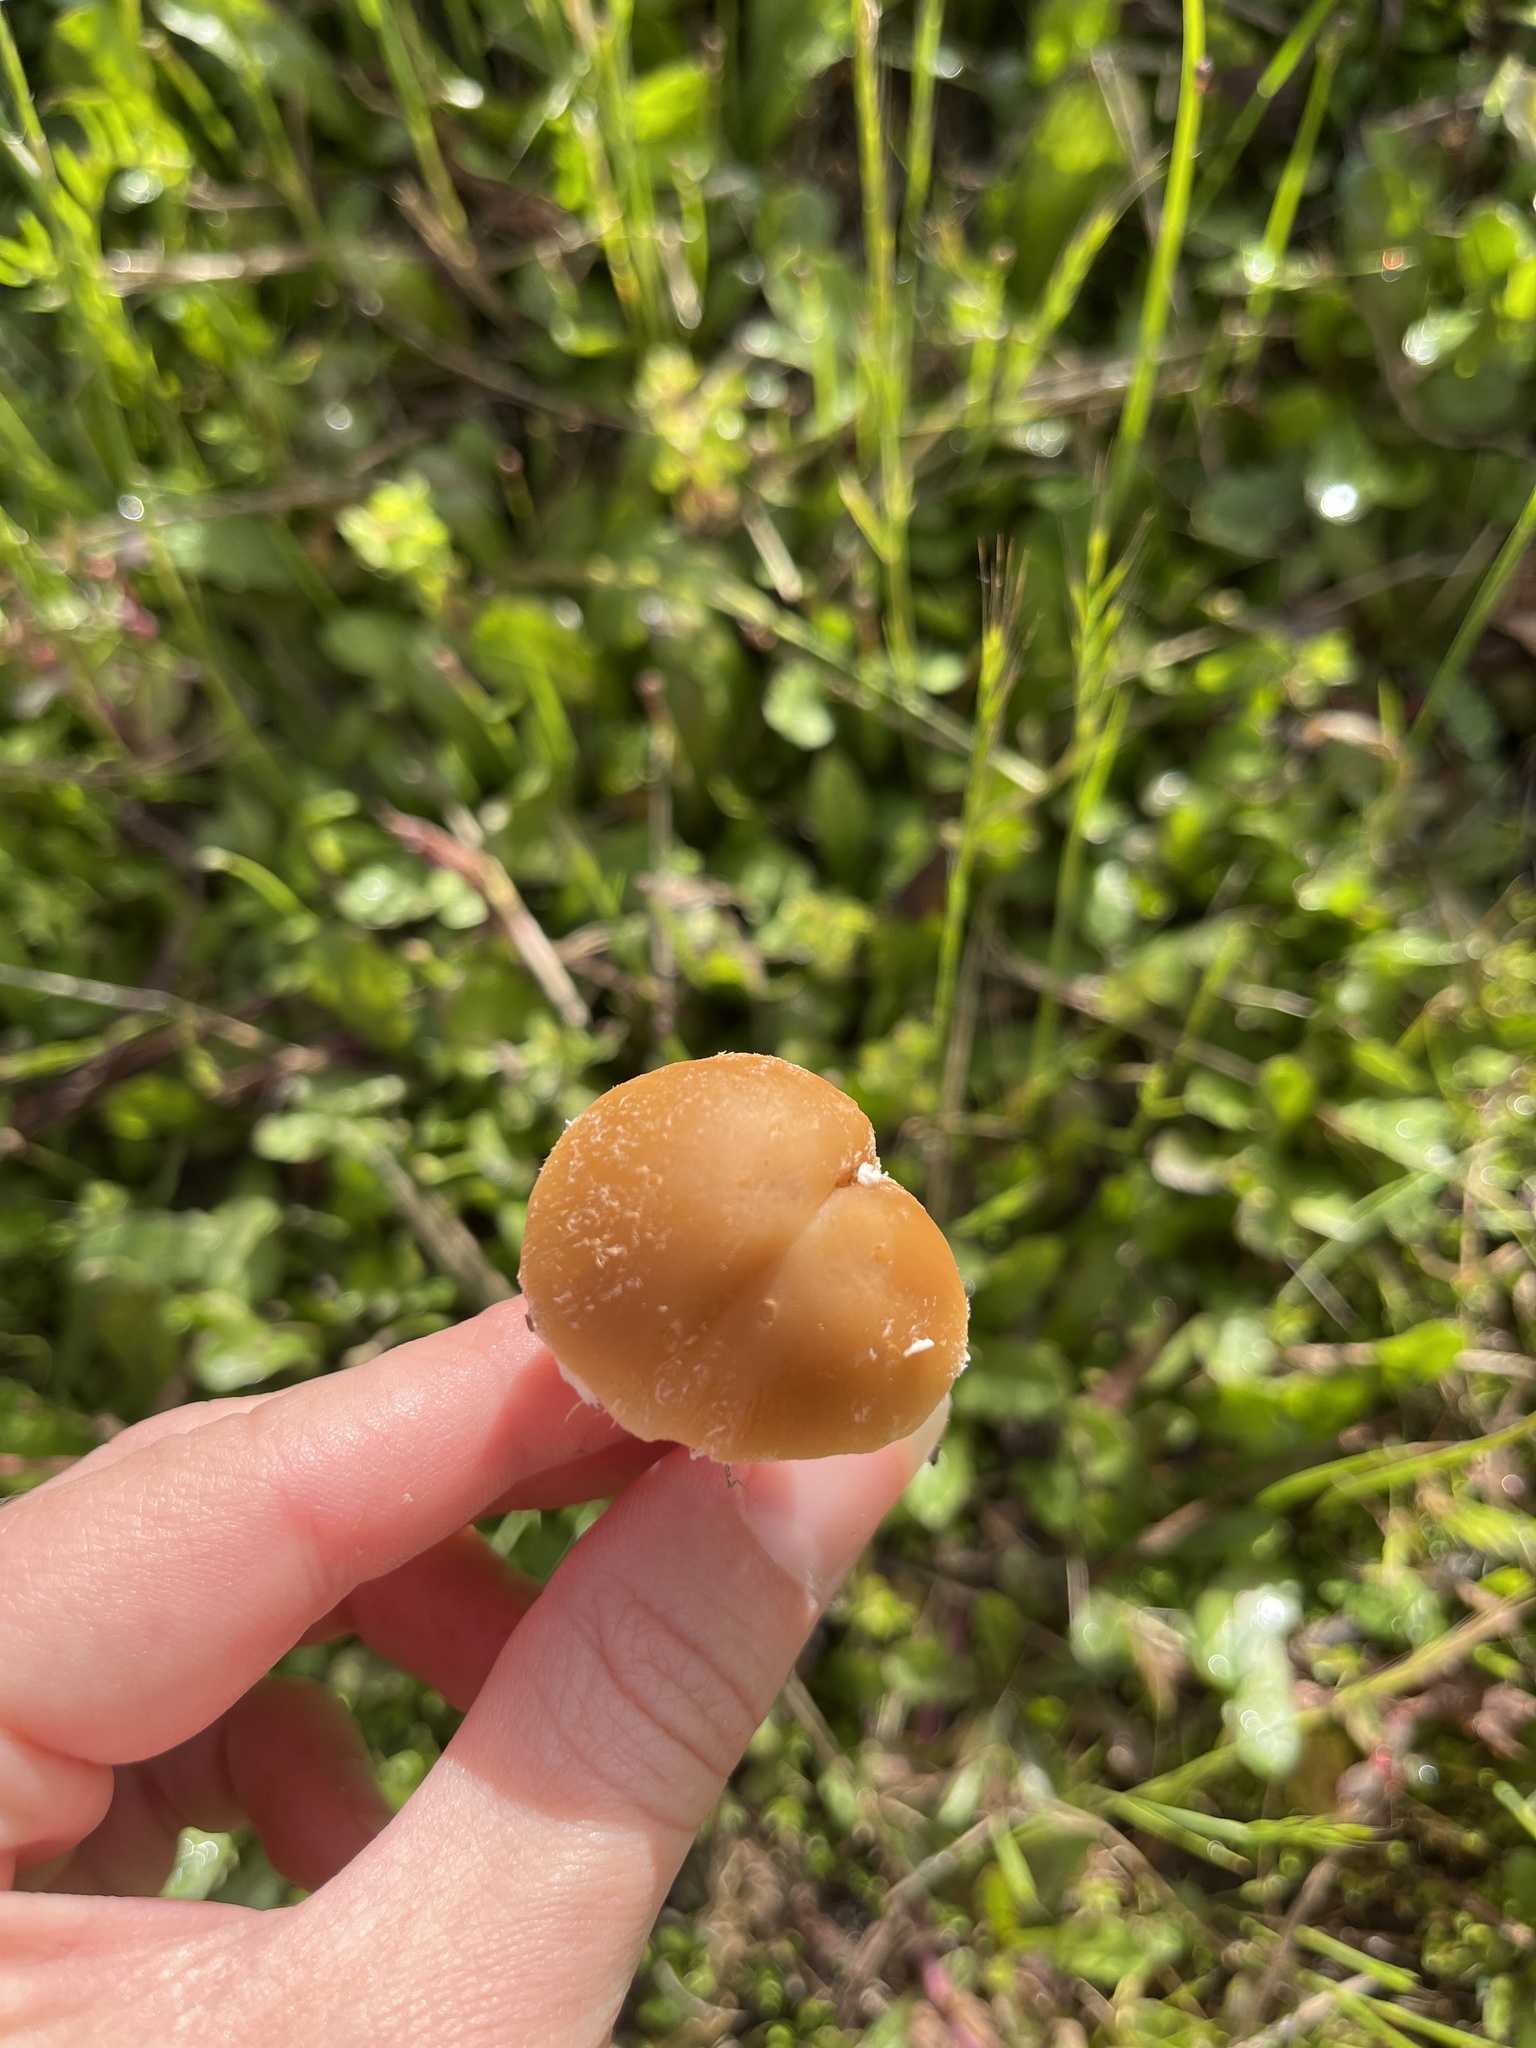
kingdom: Fungi
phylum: Basidiomycota
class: Agaricomycetes
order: Agaricales
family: Psathyrellaceae
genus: Candolleomyces
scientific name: Candolleomyces candolleanus
